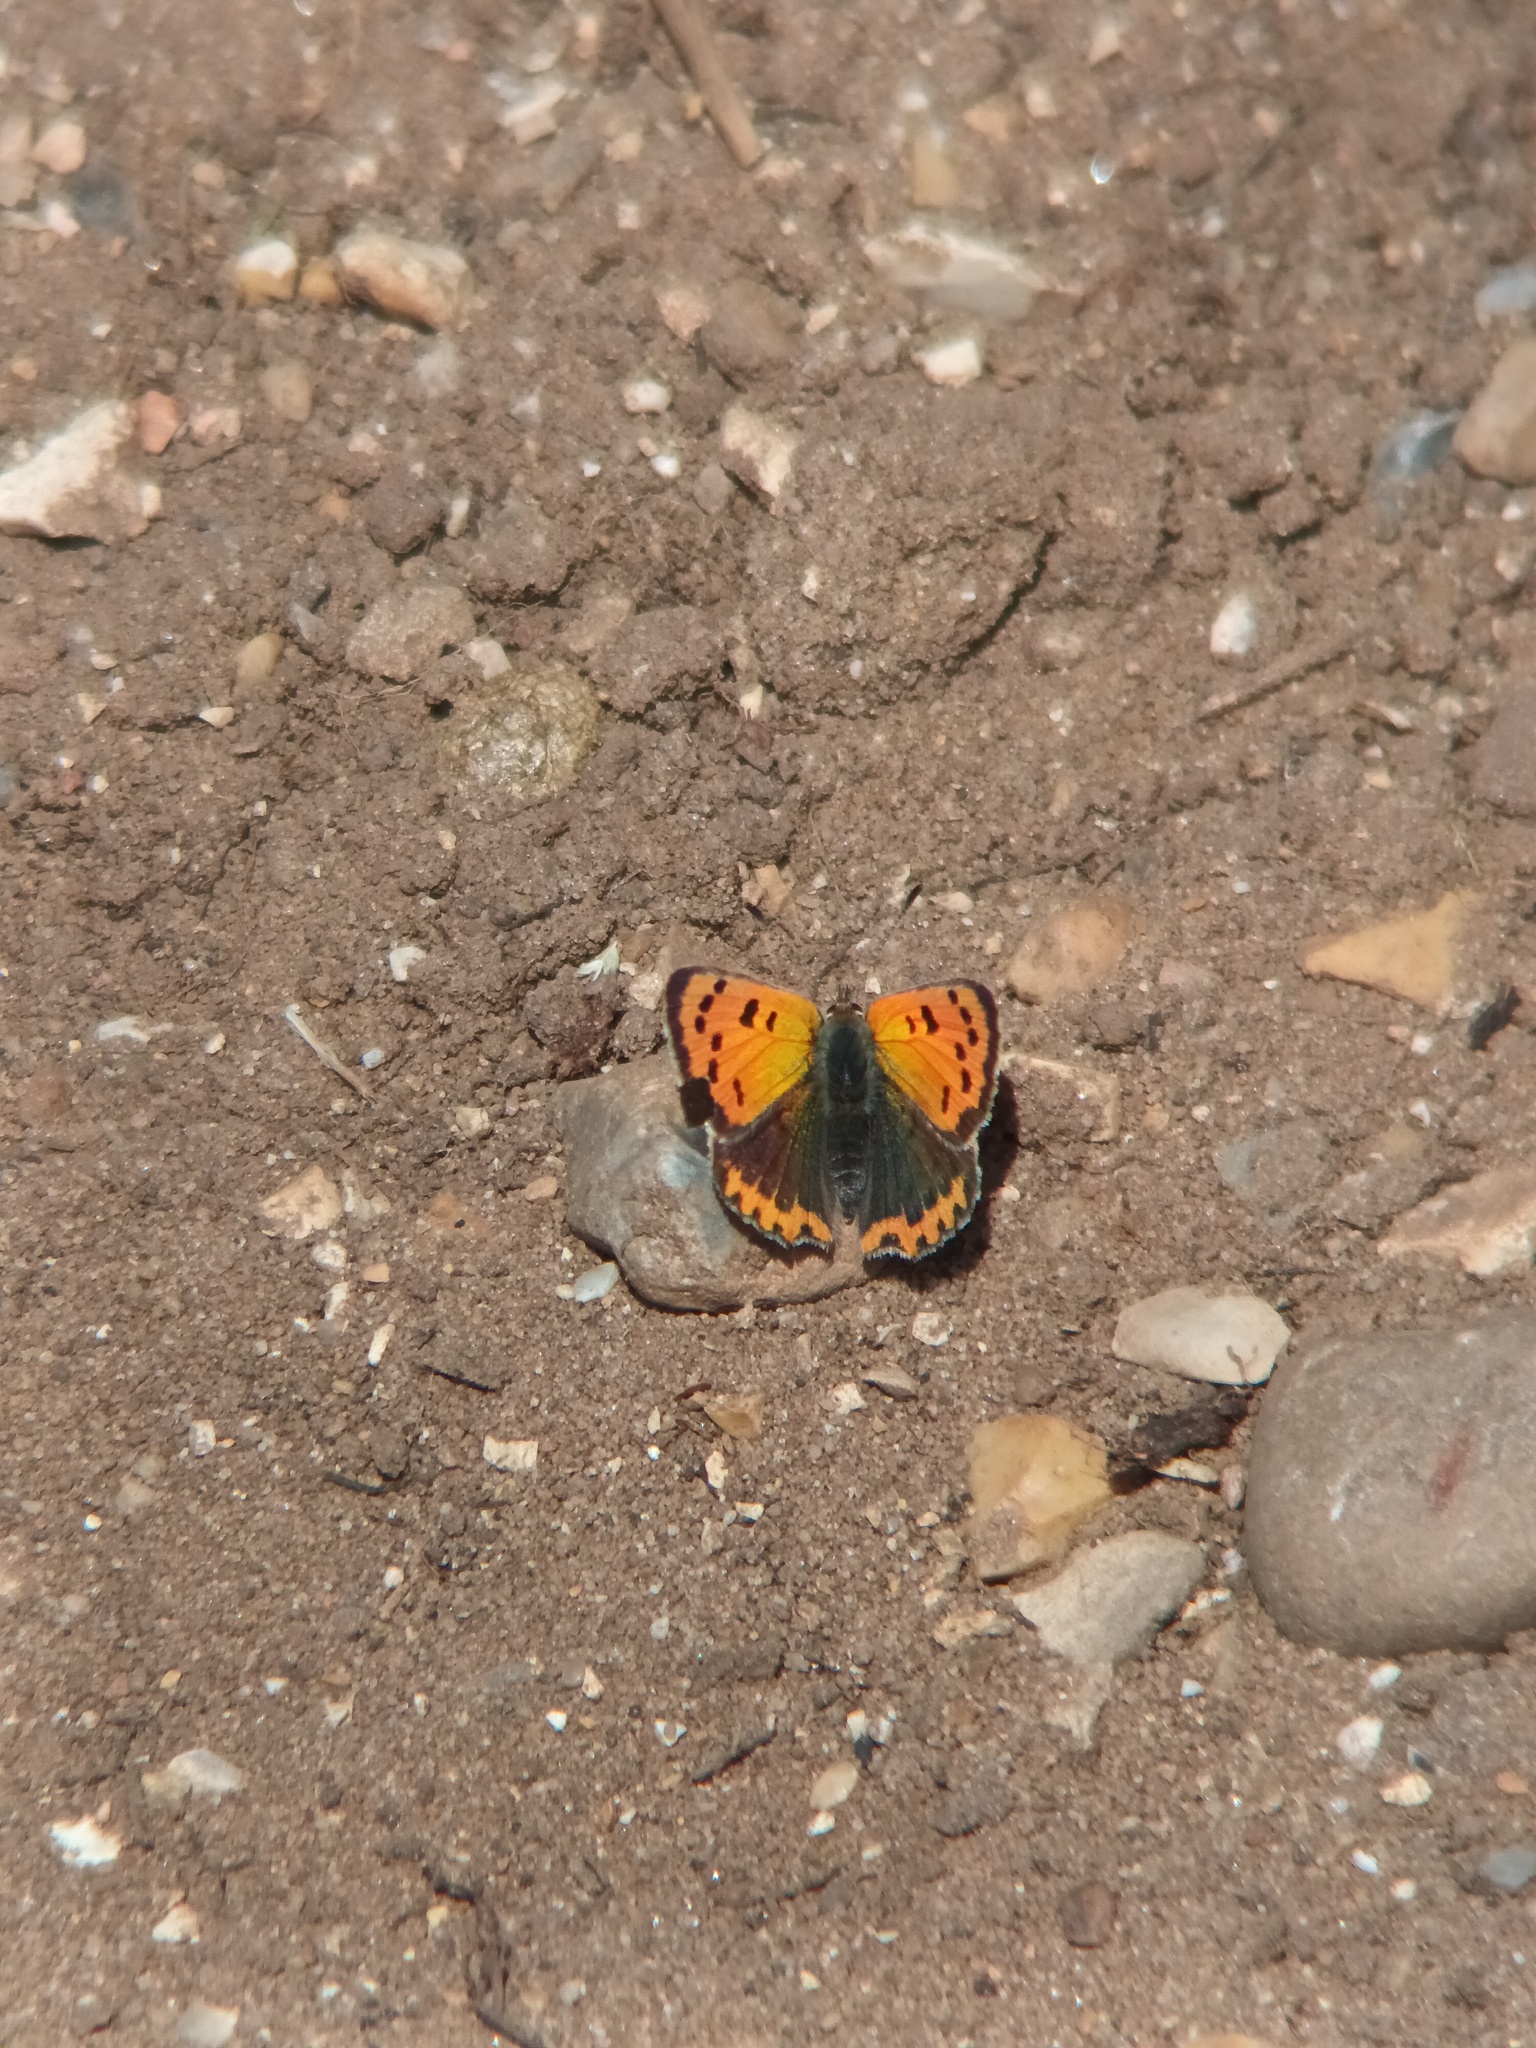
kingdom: Animalia
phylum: Arthropoda
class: Insecta
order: Lepidoptera
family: Lycaenidae
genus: Lycaena
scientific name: Lycaena phlaeas
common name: Small copper
